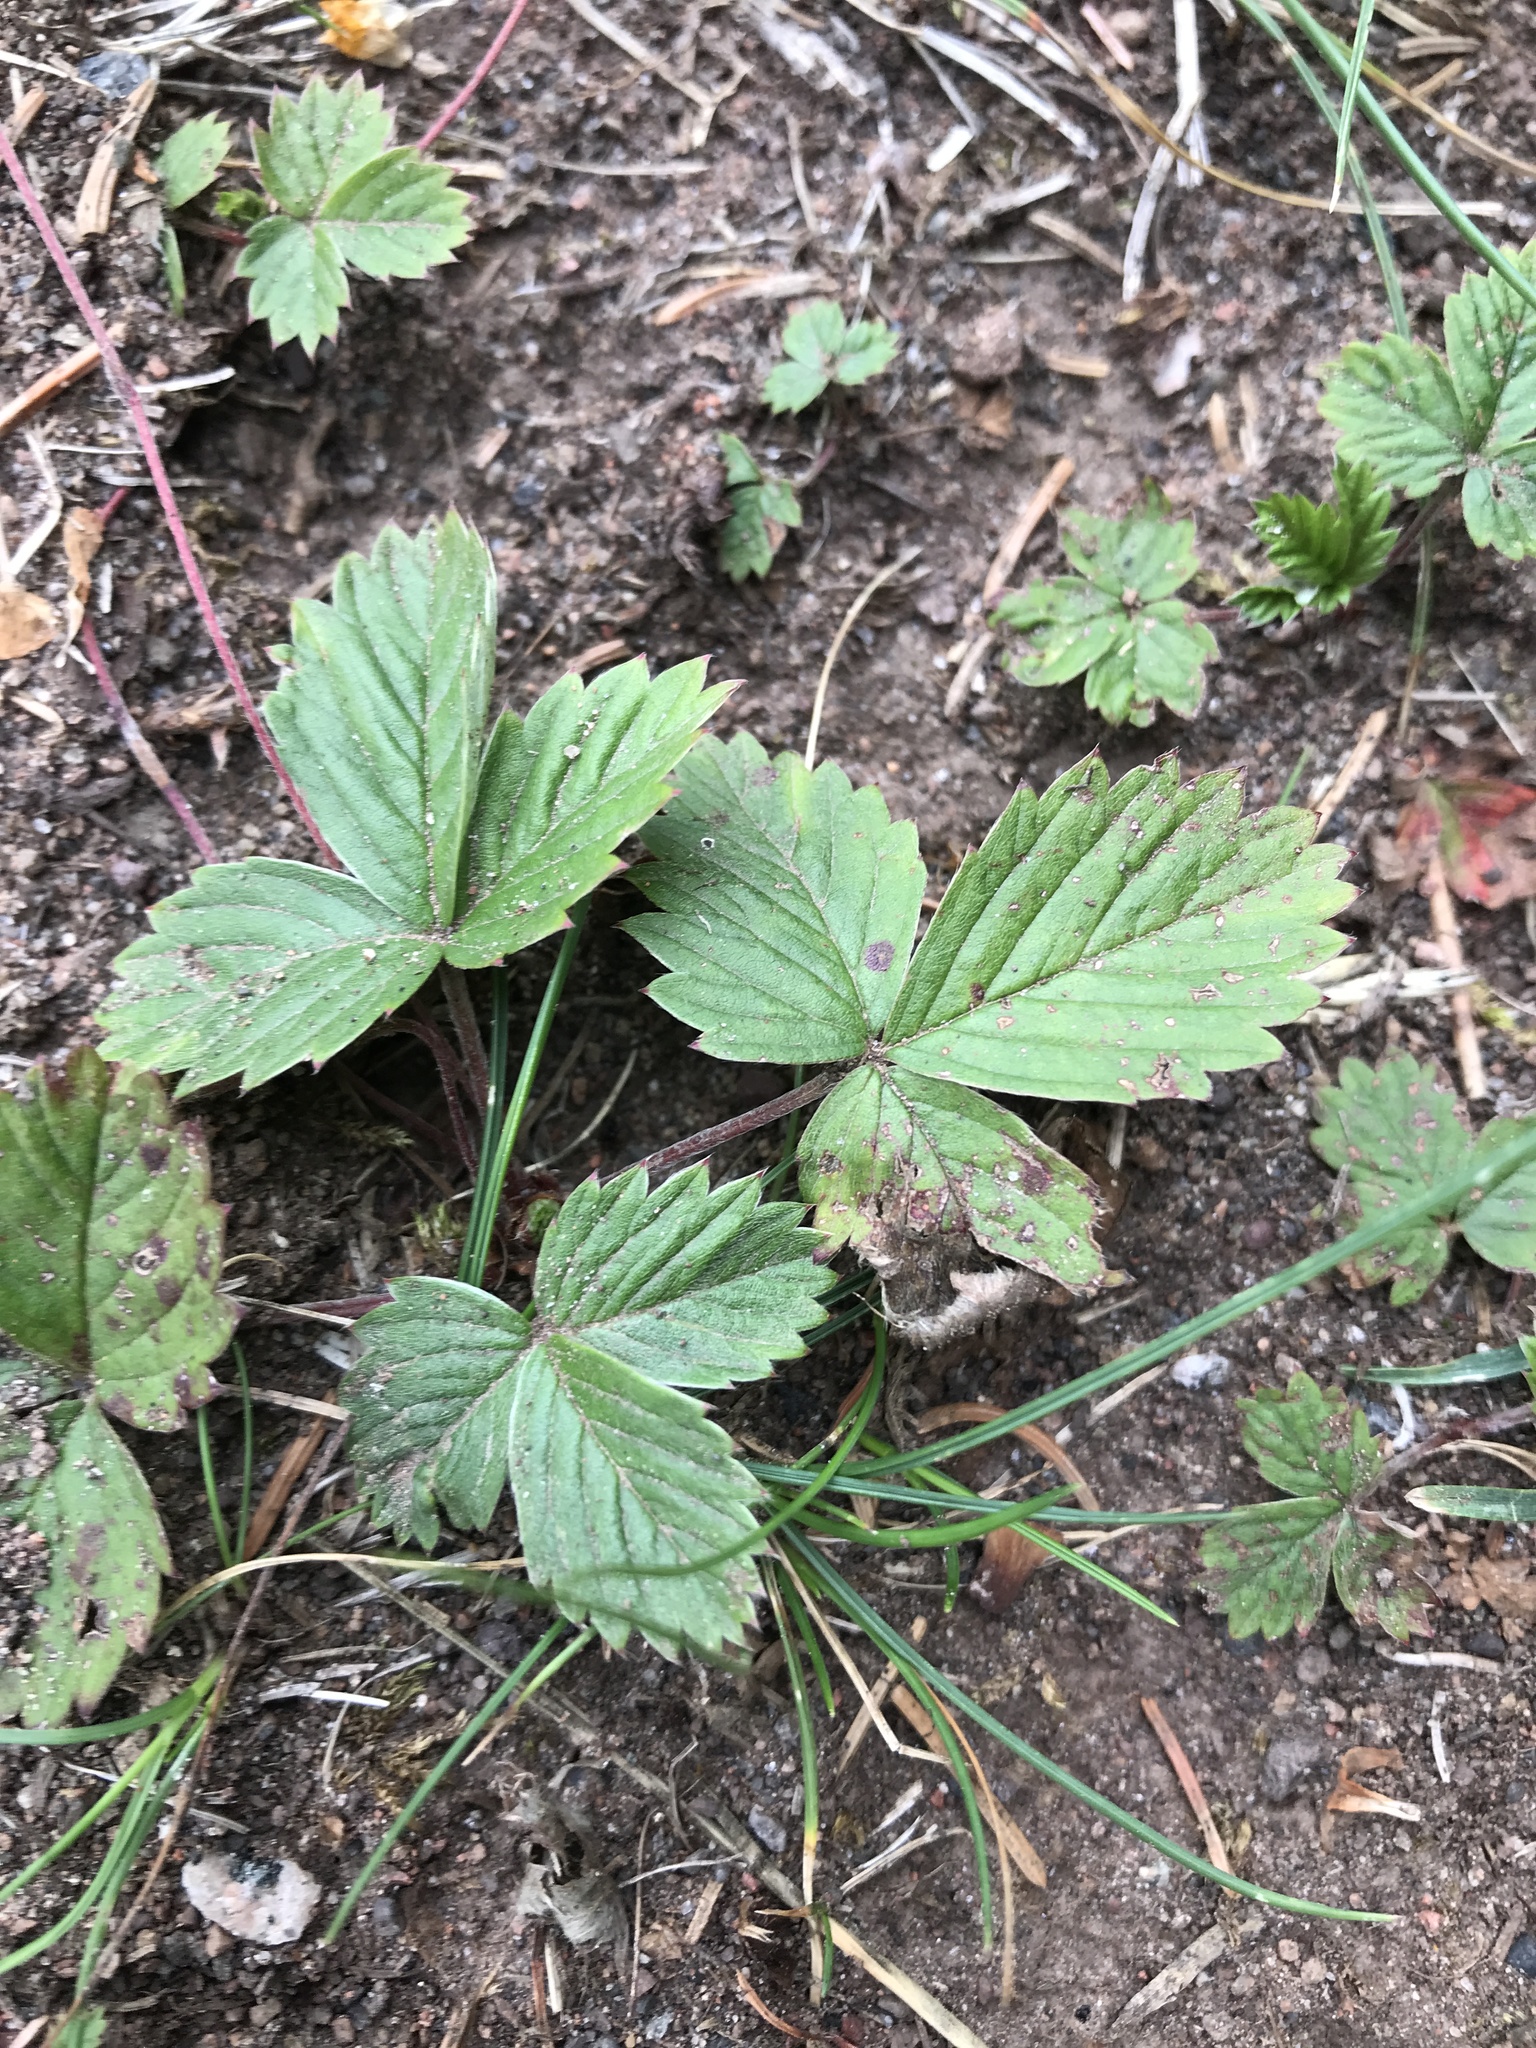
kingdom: Plantae
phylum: Tracheophyta
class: Magnoliopsida
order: Rosales
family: Rosaceae
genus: Fragaria
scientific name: Fragaria vesca
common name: Wild strawberry
